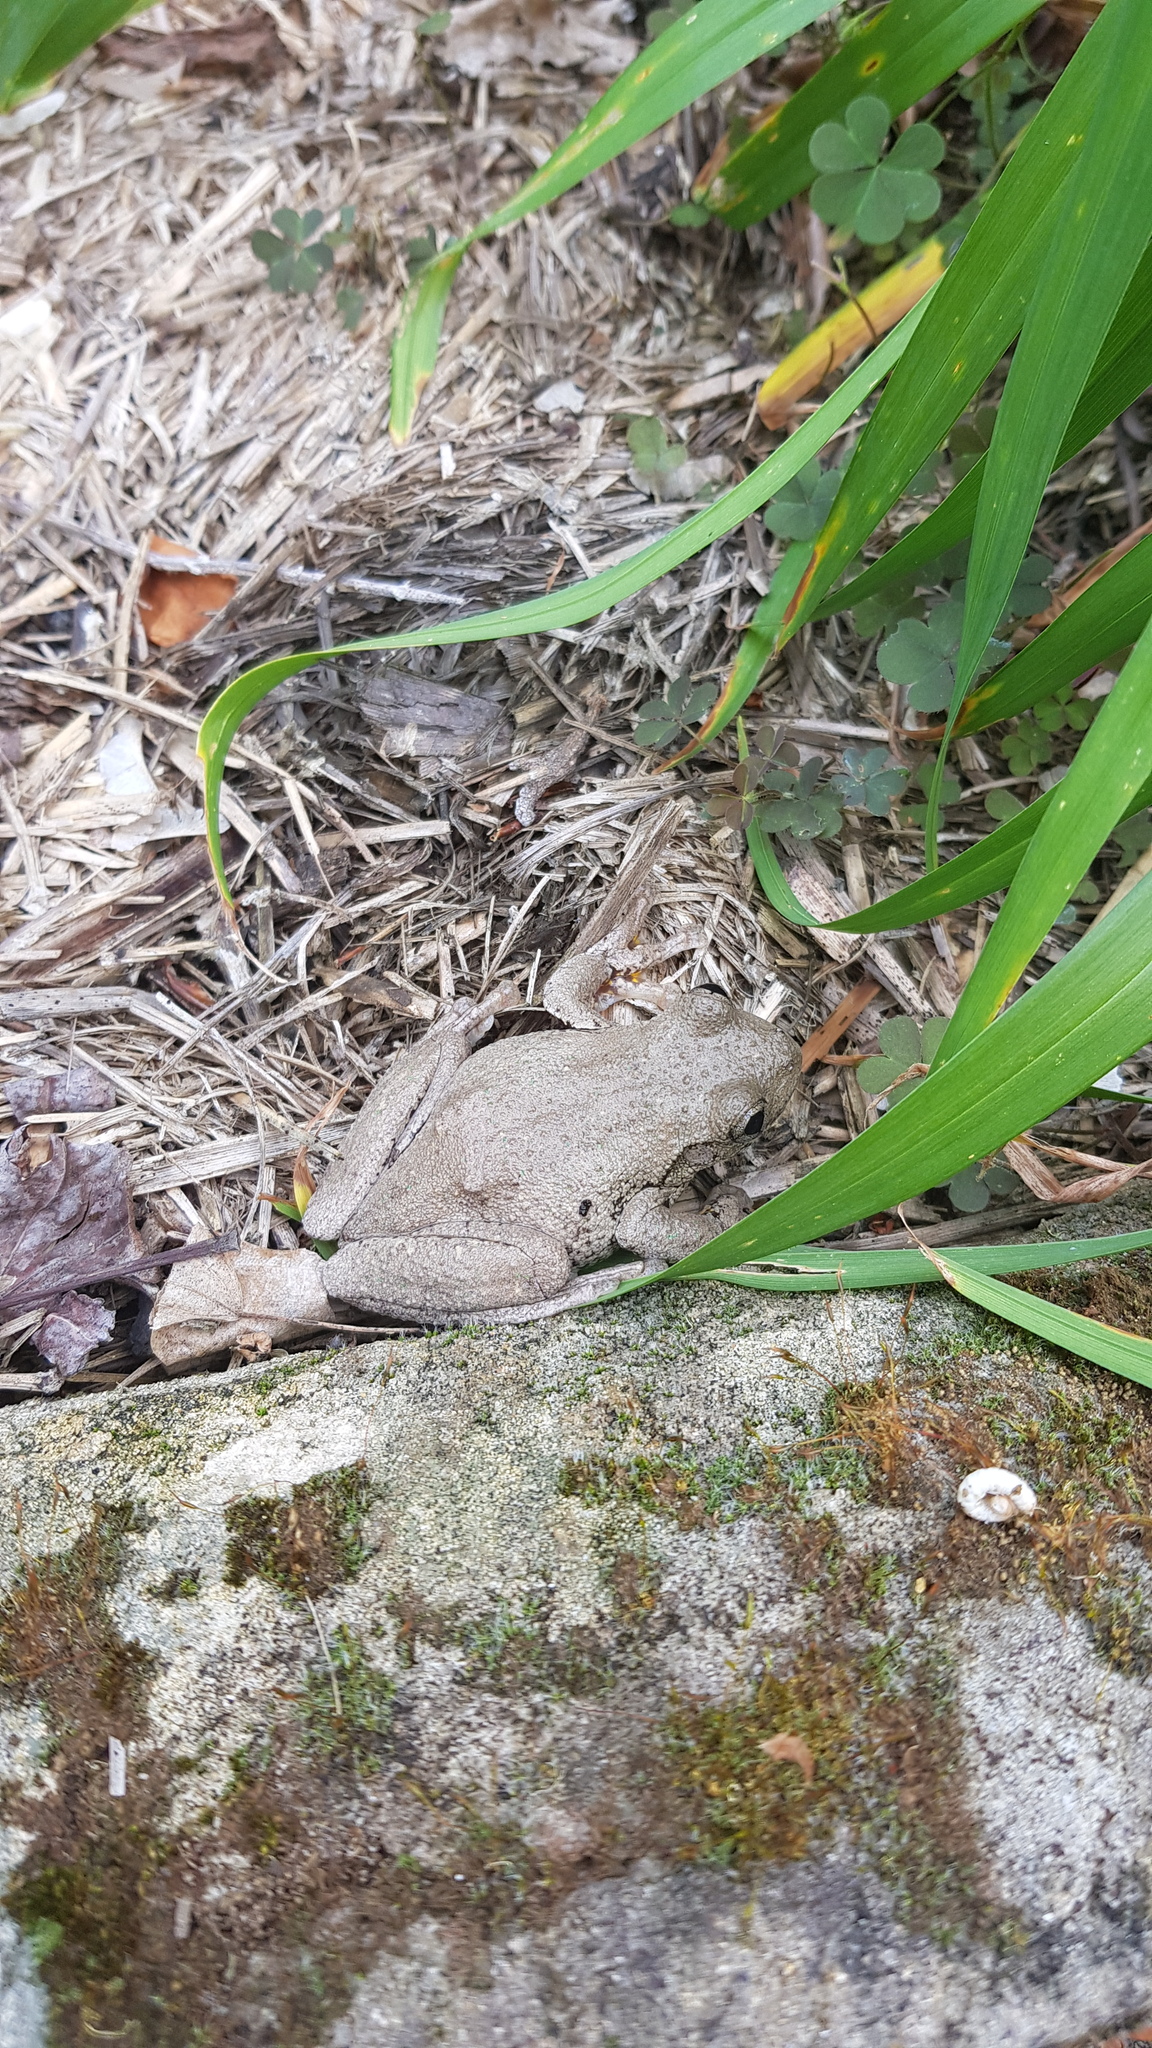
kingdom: Animalia
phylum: Chordata
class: Amphibia
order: Anura
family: Pelodryadidae
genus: Litoria
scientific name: Litoria peronii
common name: Emerald spotted treefrog
